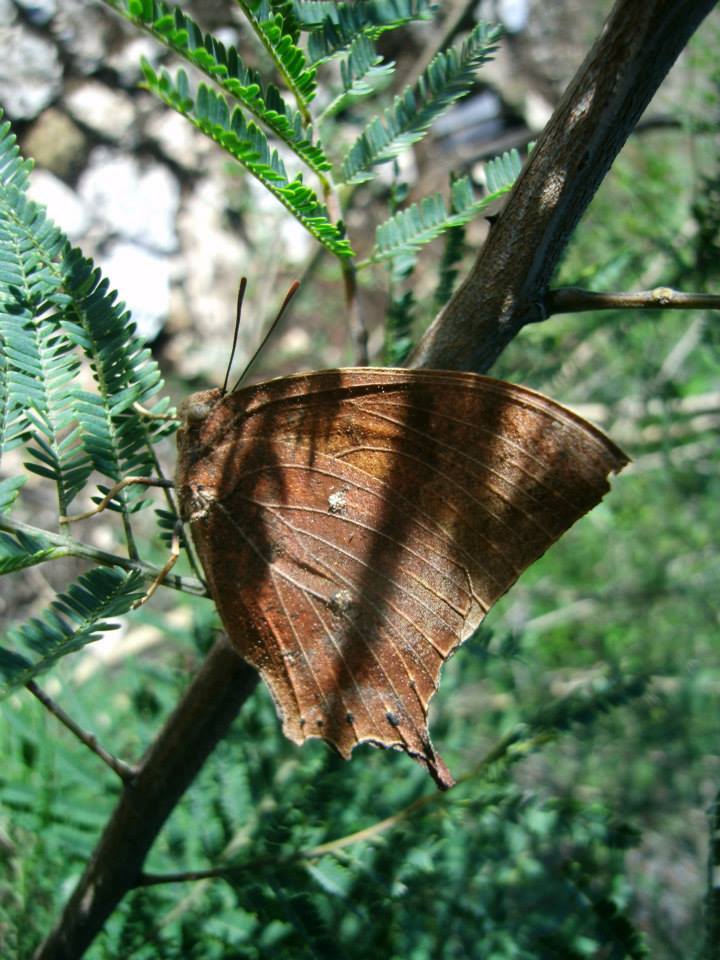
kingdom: Animalia
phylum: Arthropoda
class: Insecta
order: Lepidoptera
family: Nymphalidae
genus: Anaea
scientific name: Anaea aidea
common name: Tropical leafwing
